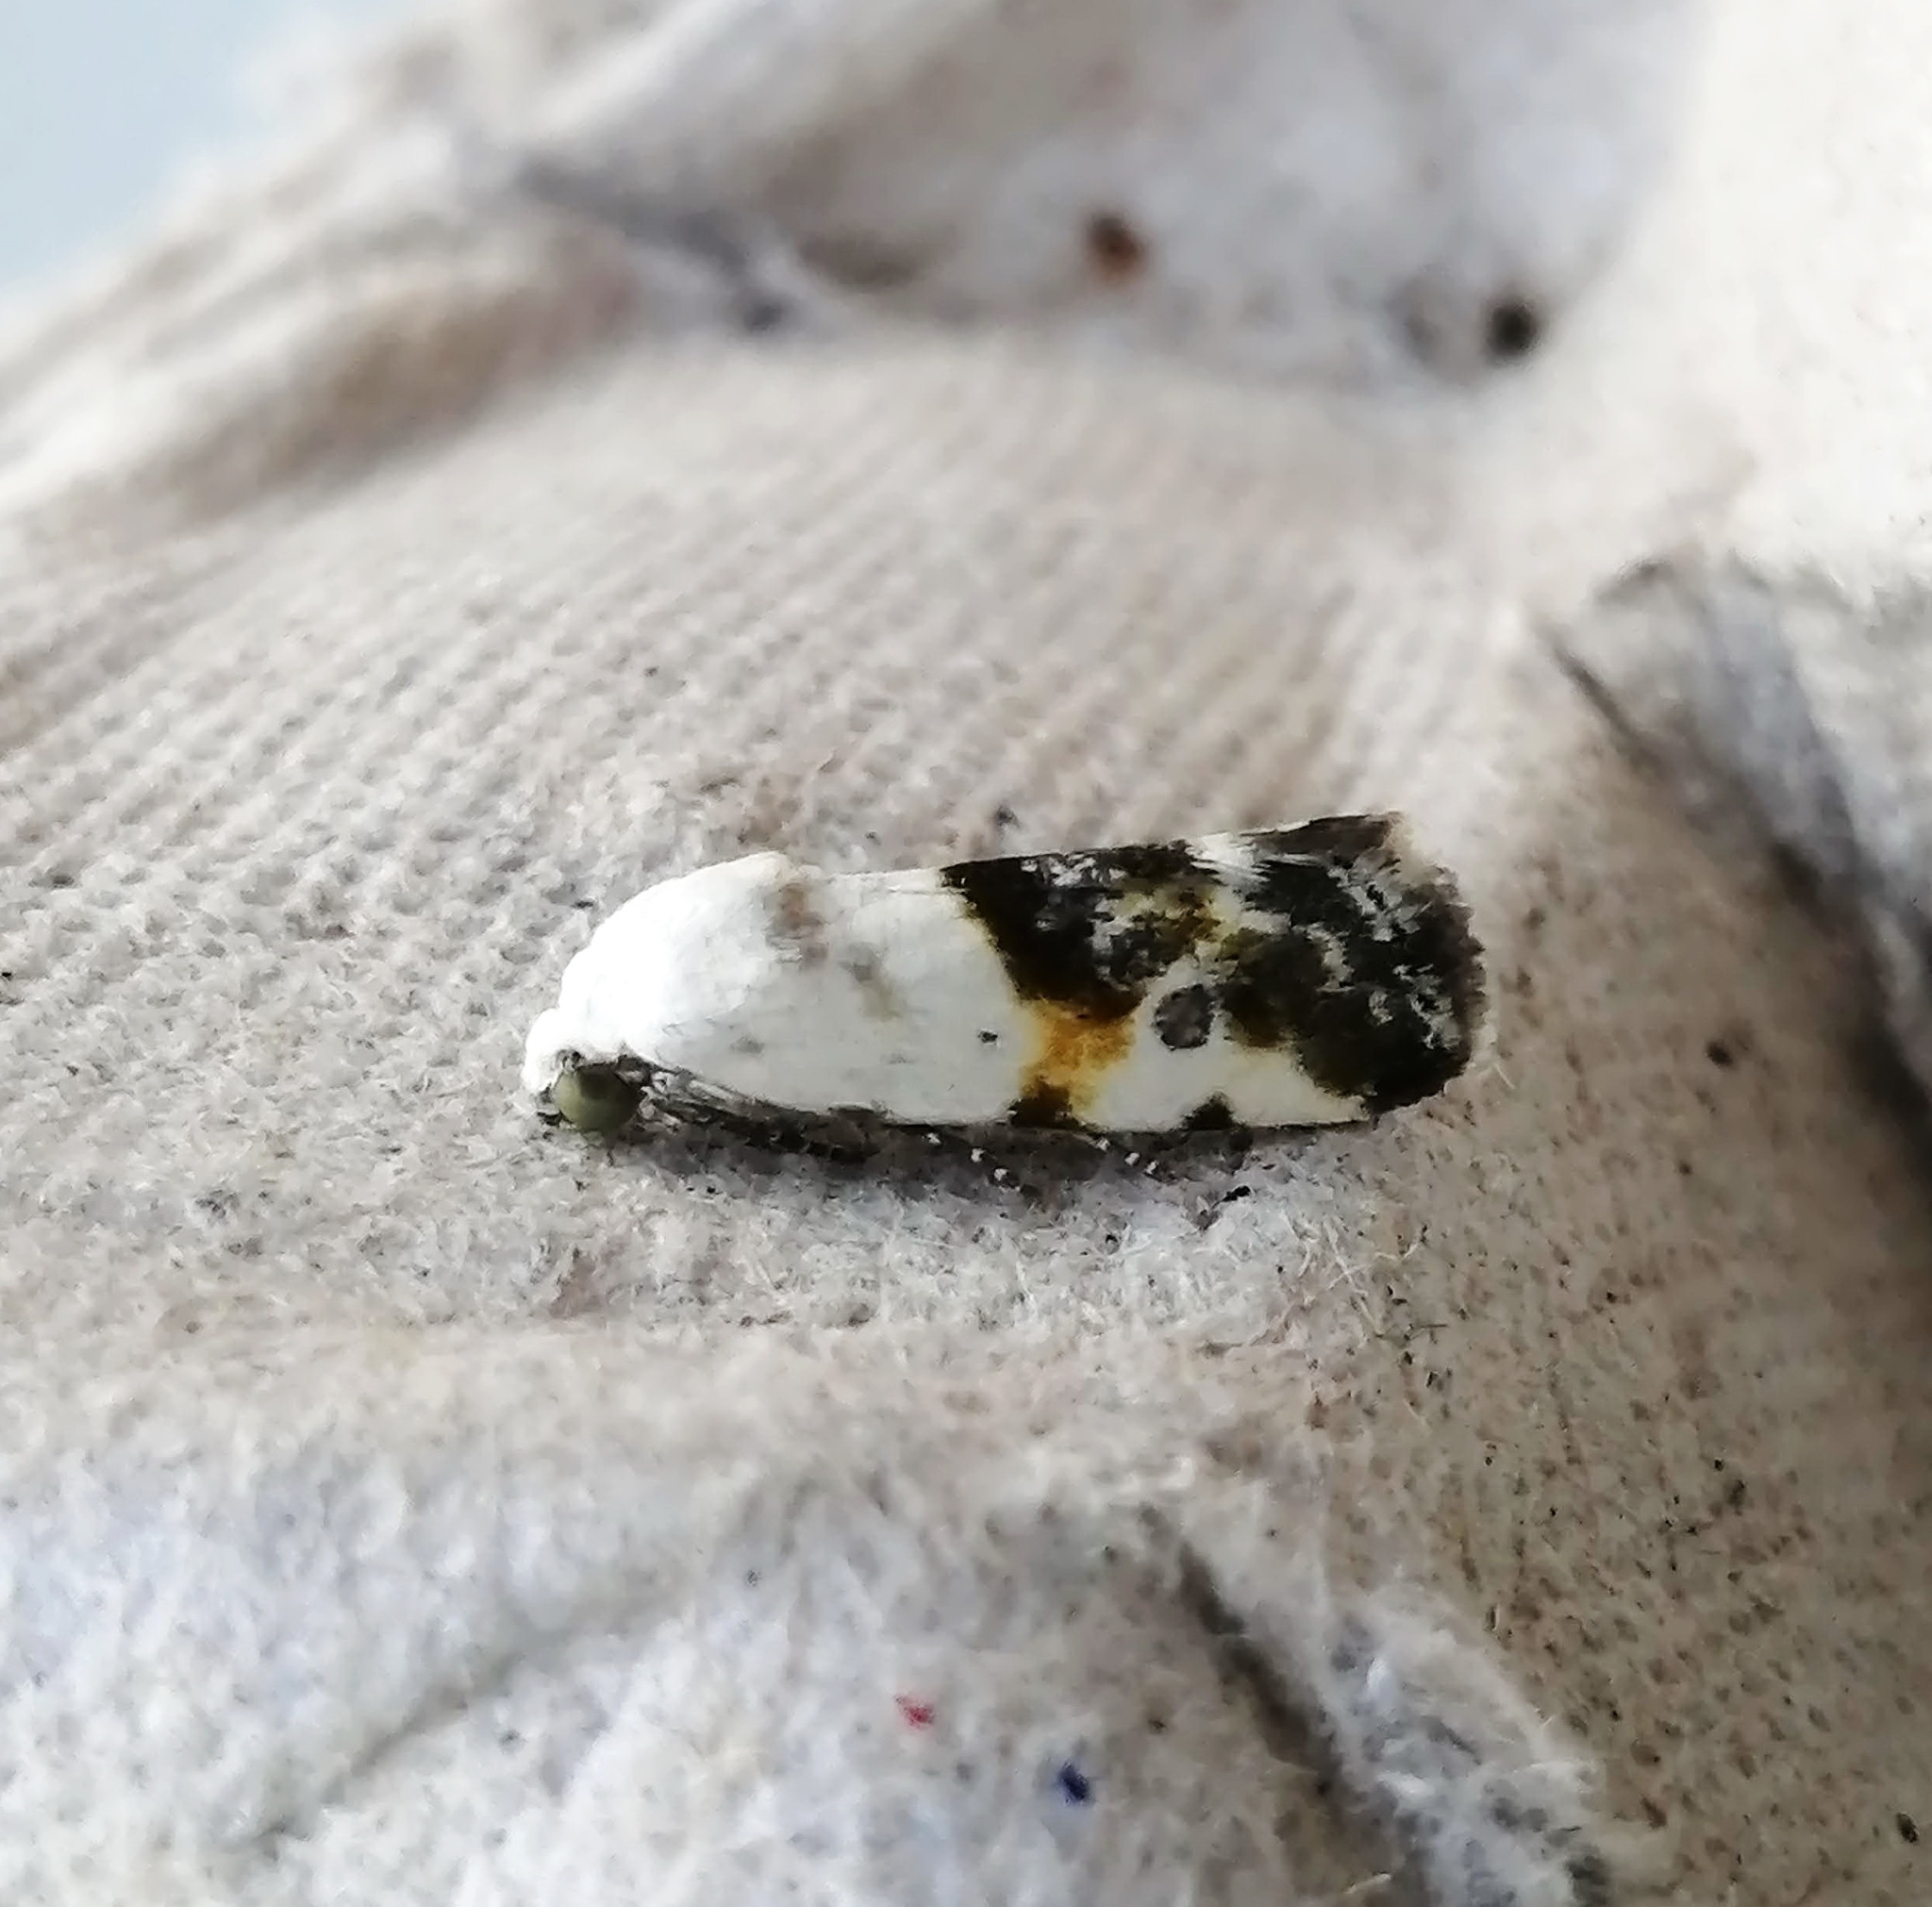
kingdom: Animalia
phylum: Arthropoda
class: Insecta
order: Lepidoptera
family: Noctuidae
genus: Acontia
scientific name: Acontia candefacta
